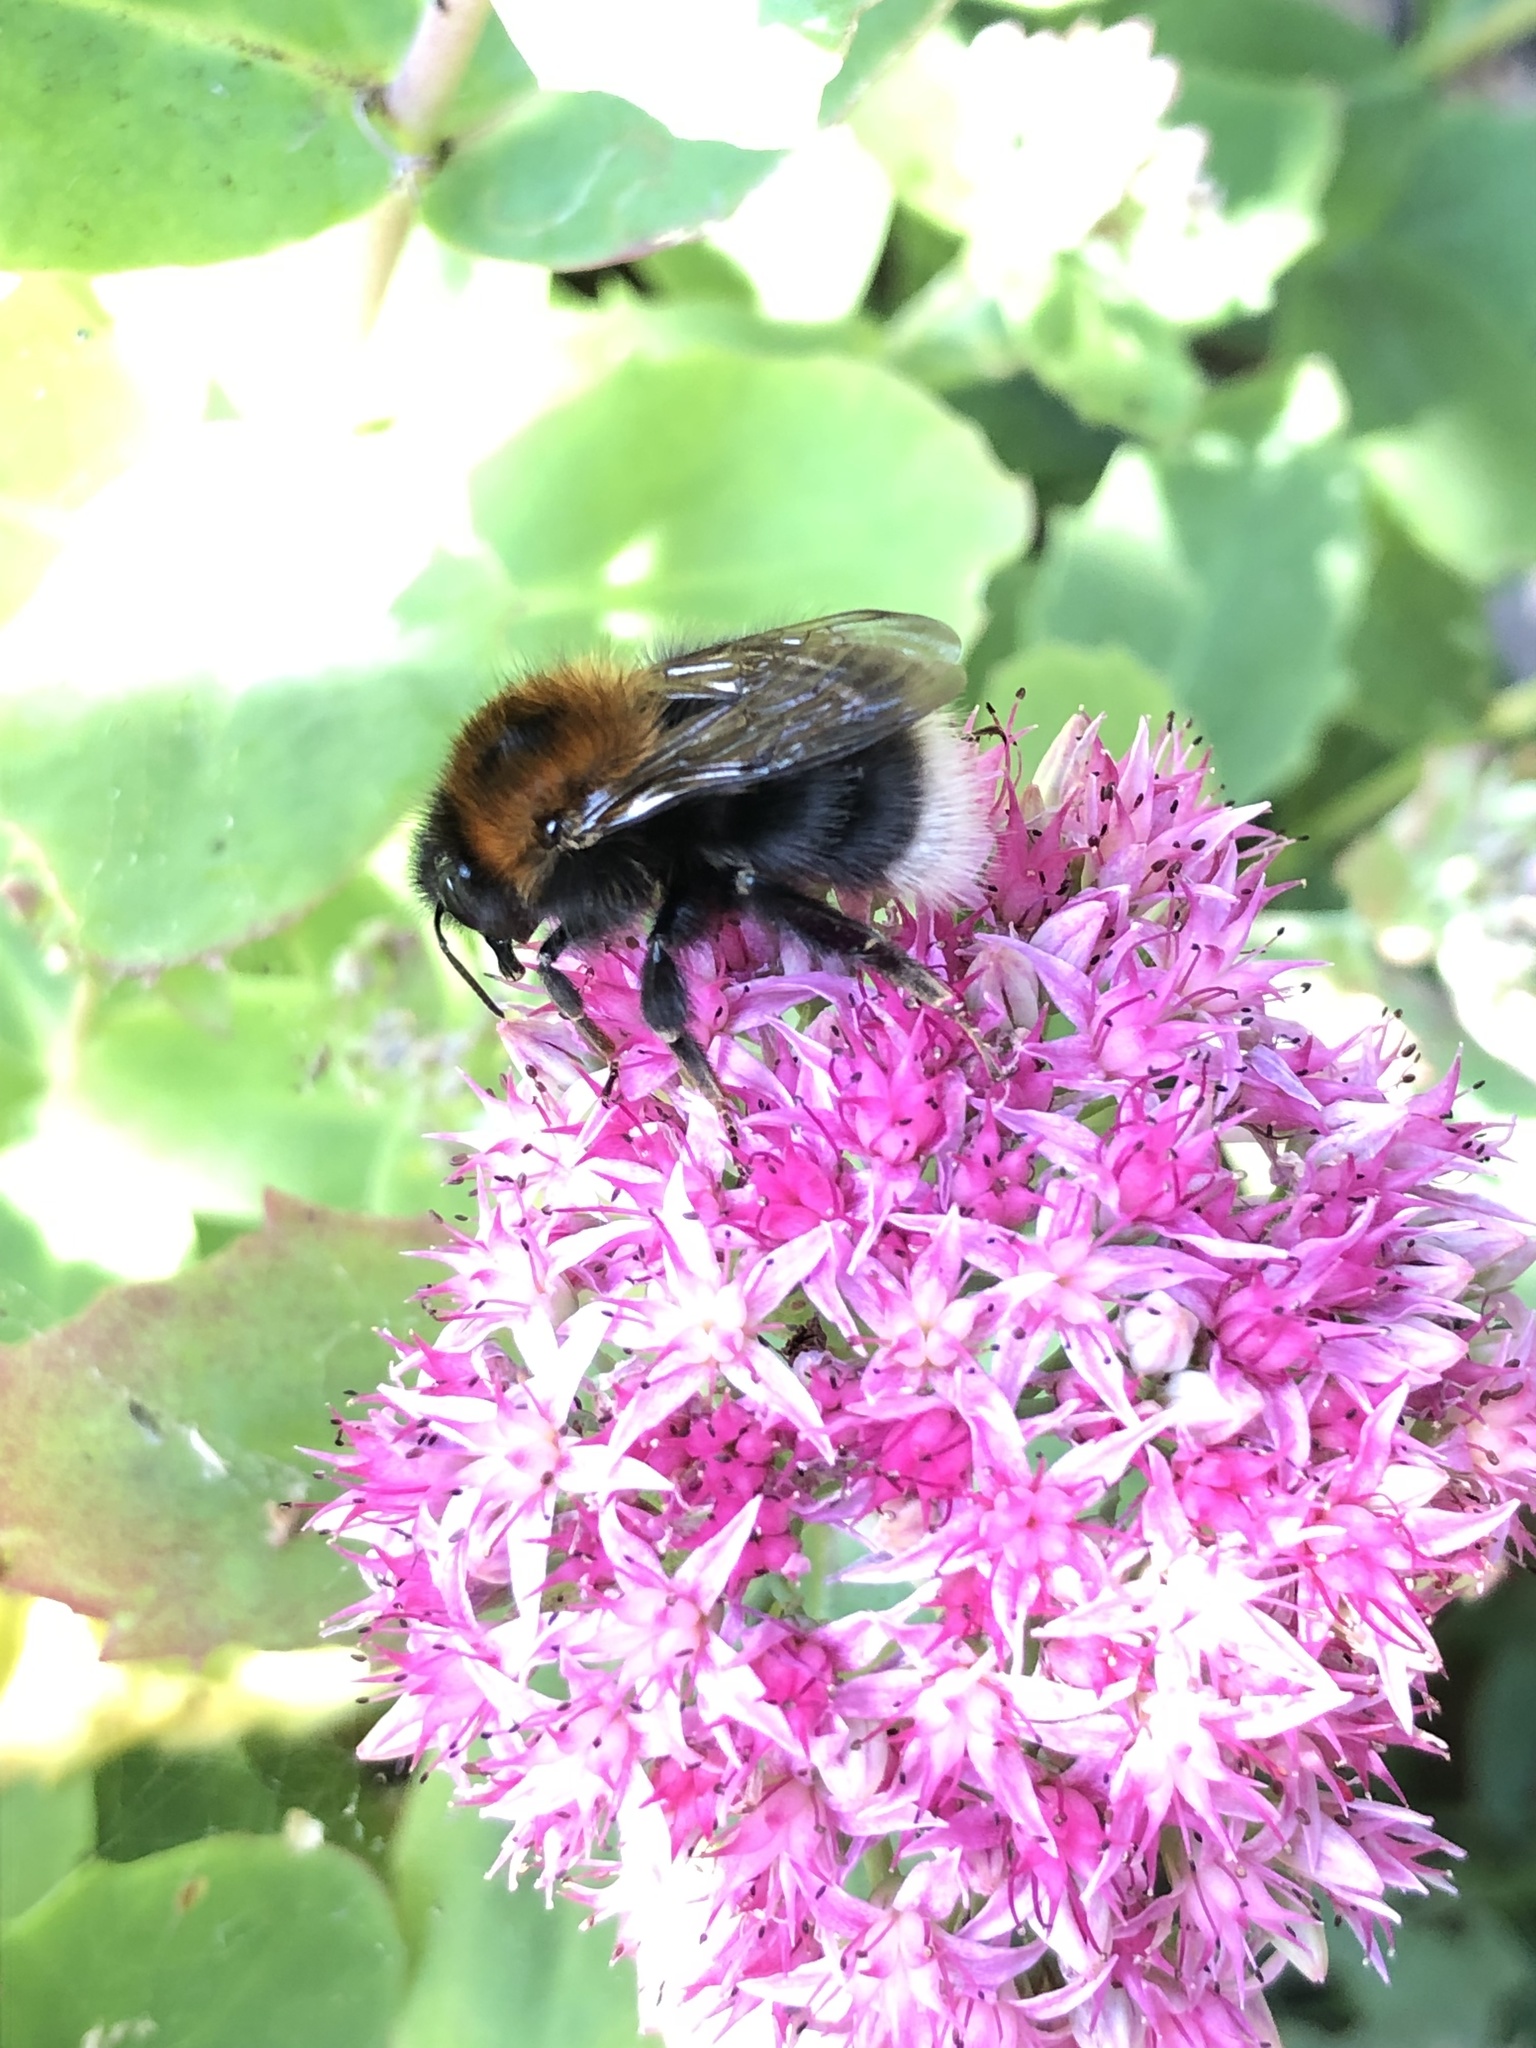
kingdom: Animalia
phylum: Arthropoda
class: Insecta
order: Hymenoptera
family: Apidae
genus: Bombus
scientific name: Bombus hypnorum
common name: New garden bumblebee
